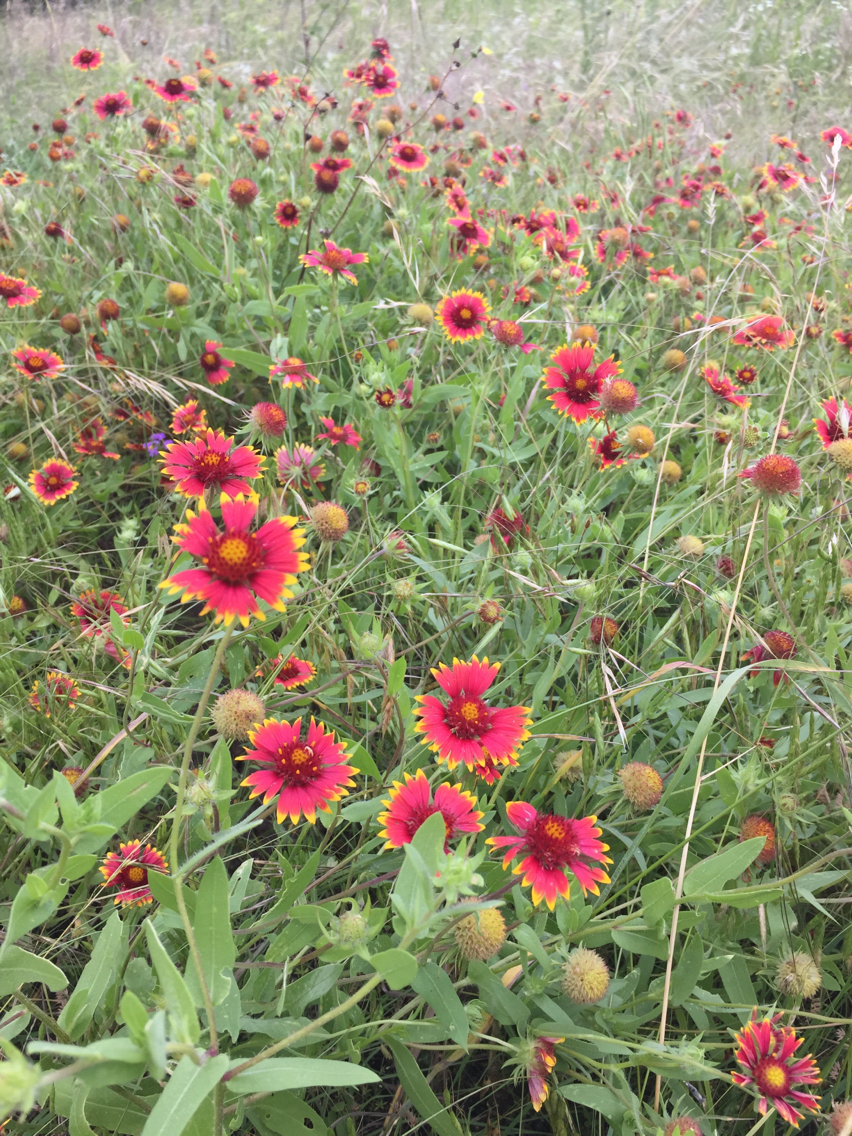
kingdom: Plantae
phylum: Tracheophyta
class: Magnoliopsida
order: Asterales
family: Asteraceae
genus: Gaillardia
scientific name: Gaillardia pulchella
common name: Firewheel
